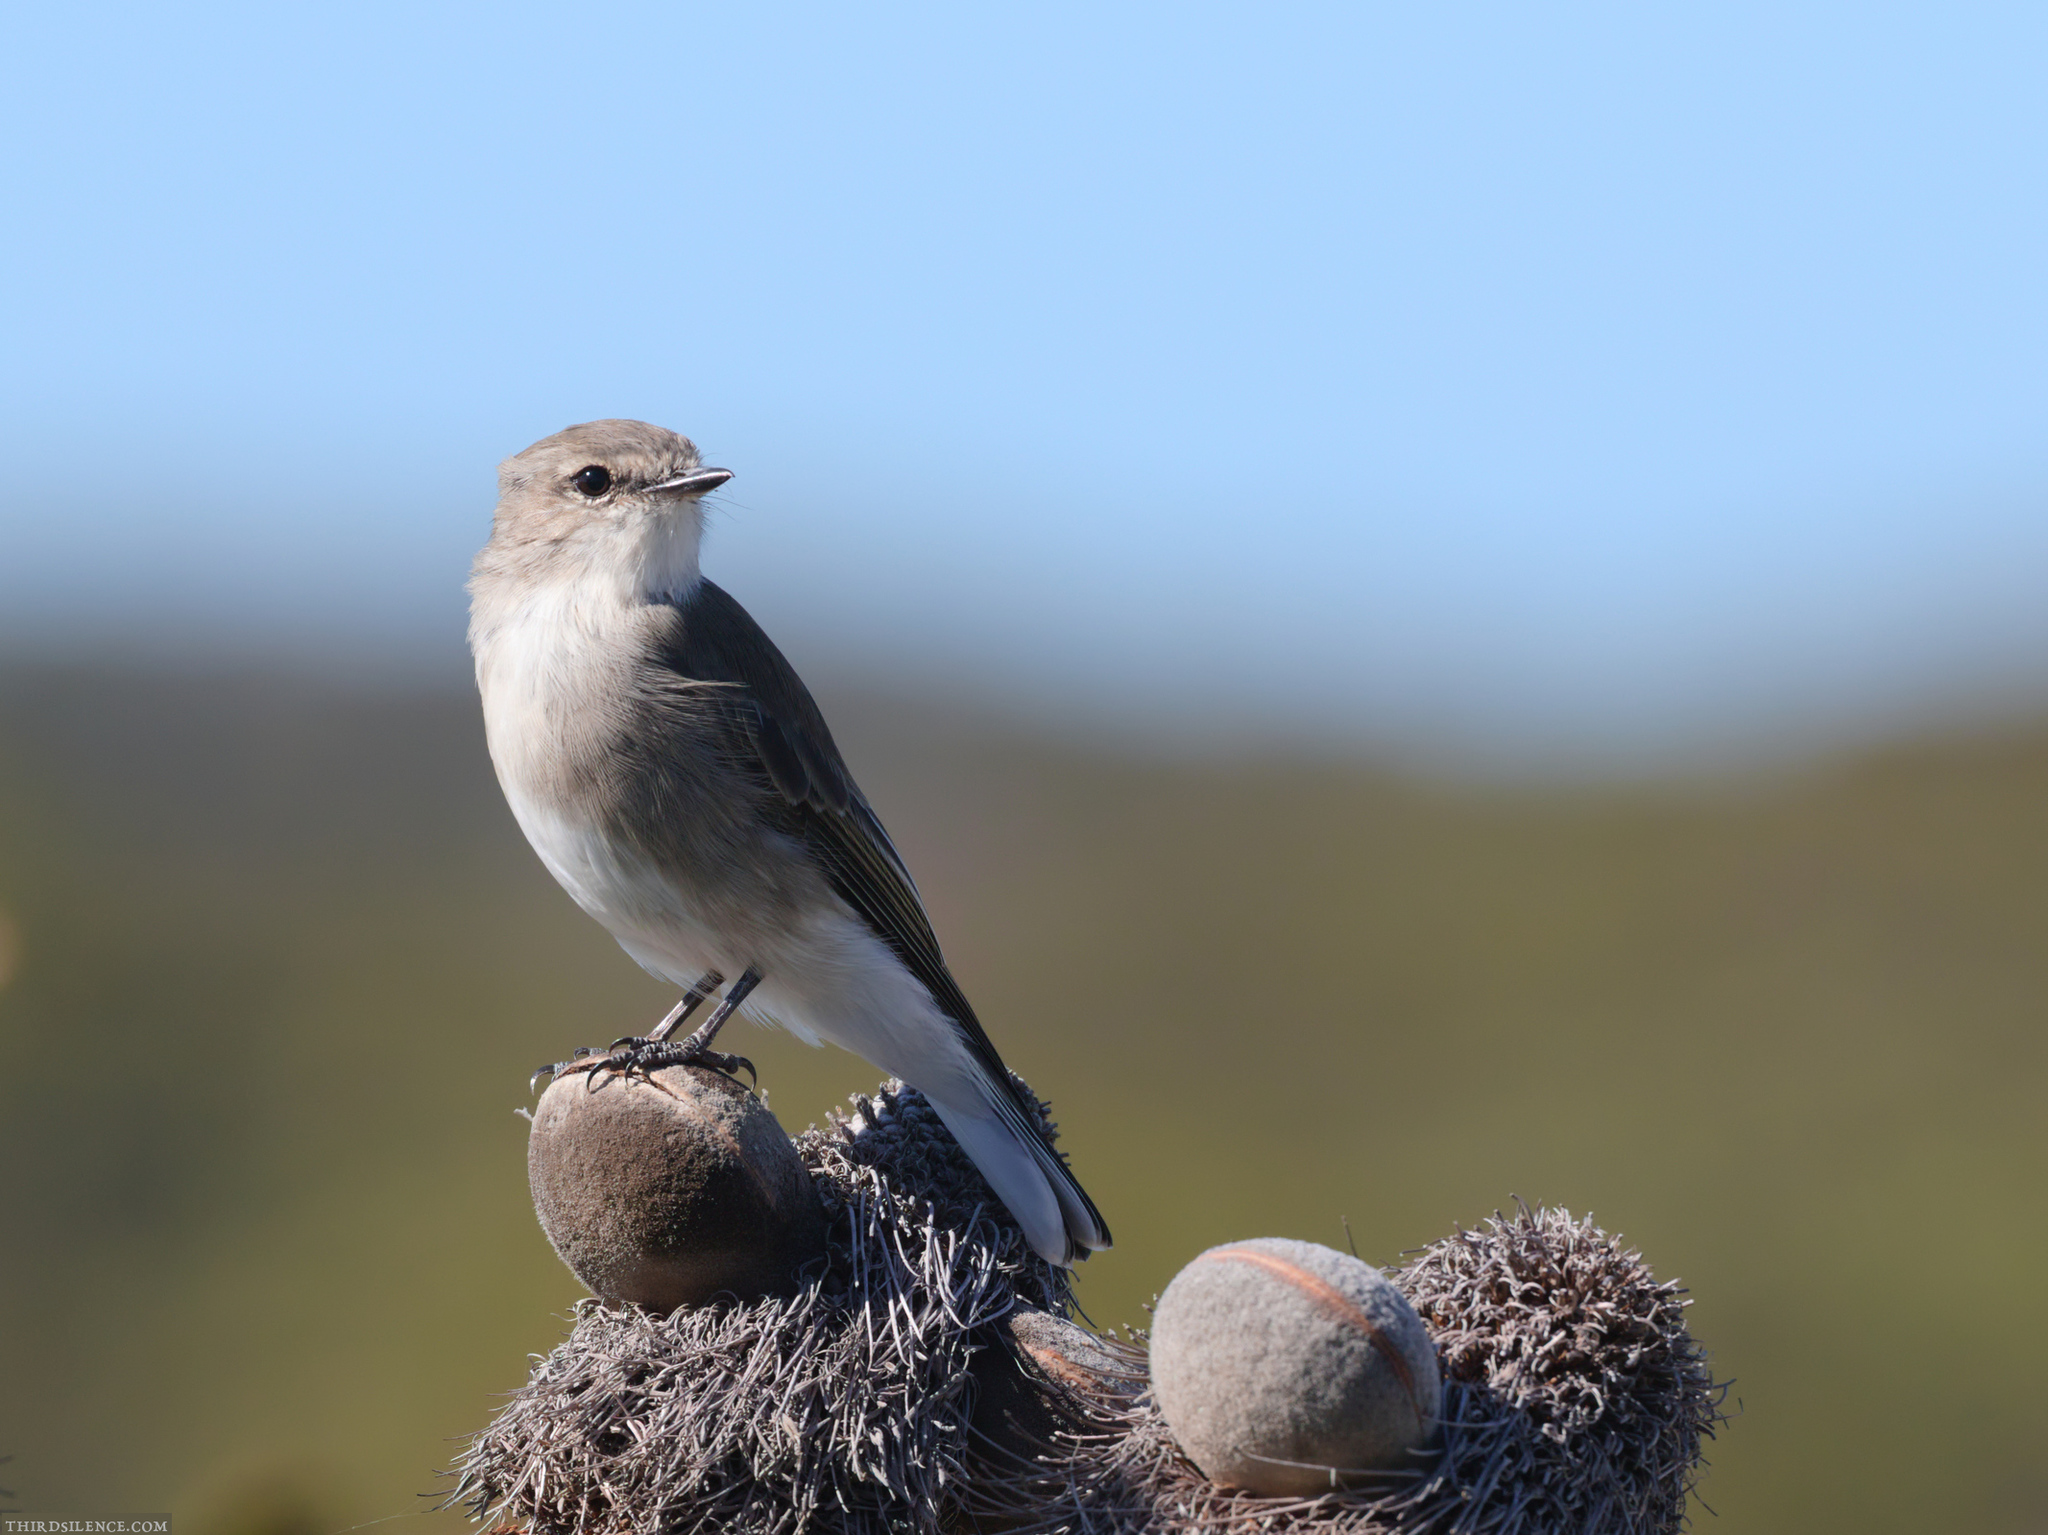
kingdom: Animalia
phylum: Chordata
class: Aves
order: Passeriformes
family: Petroicidae
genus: Microeca
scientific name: Microeca fascinans
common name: Jacky winter
